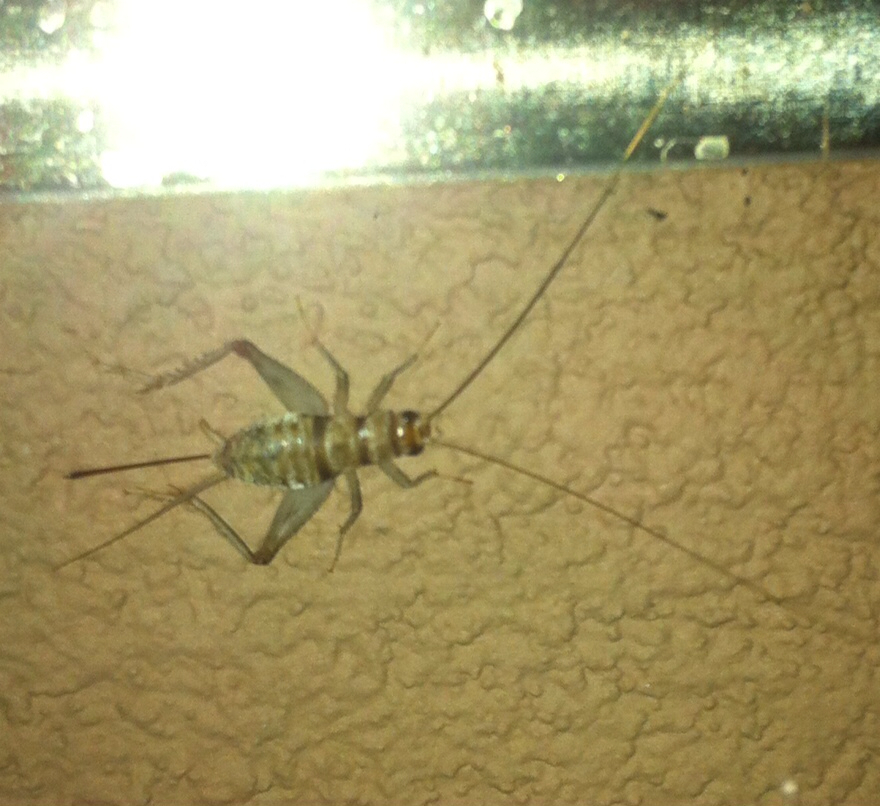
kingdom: Animalia
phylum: Arthropoda
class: Insecta
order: Orthoptera
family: Gryllidae
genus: Gryllodes
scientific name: Gryllodes sigillatus
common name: Tropical house cricket
